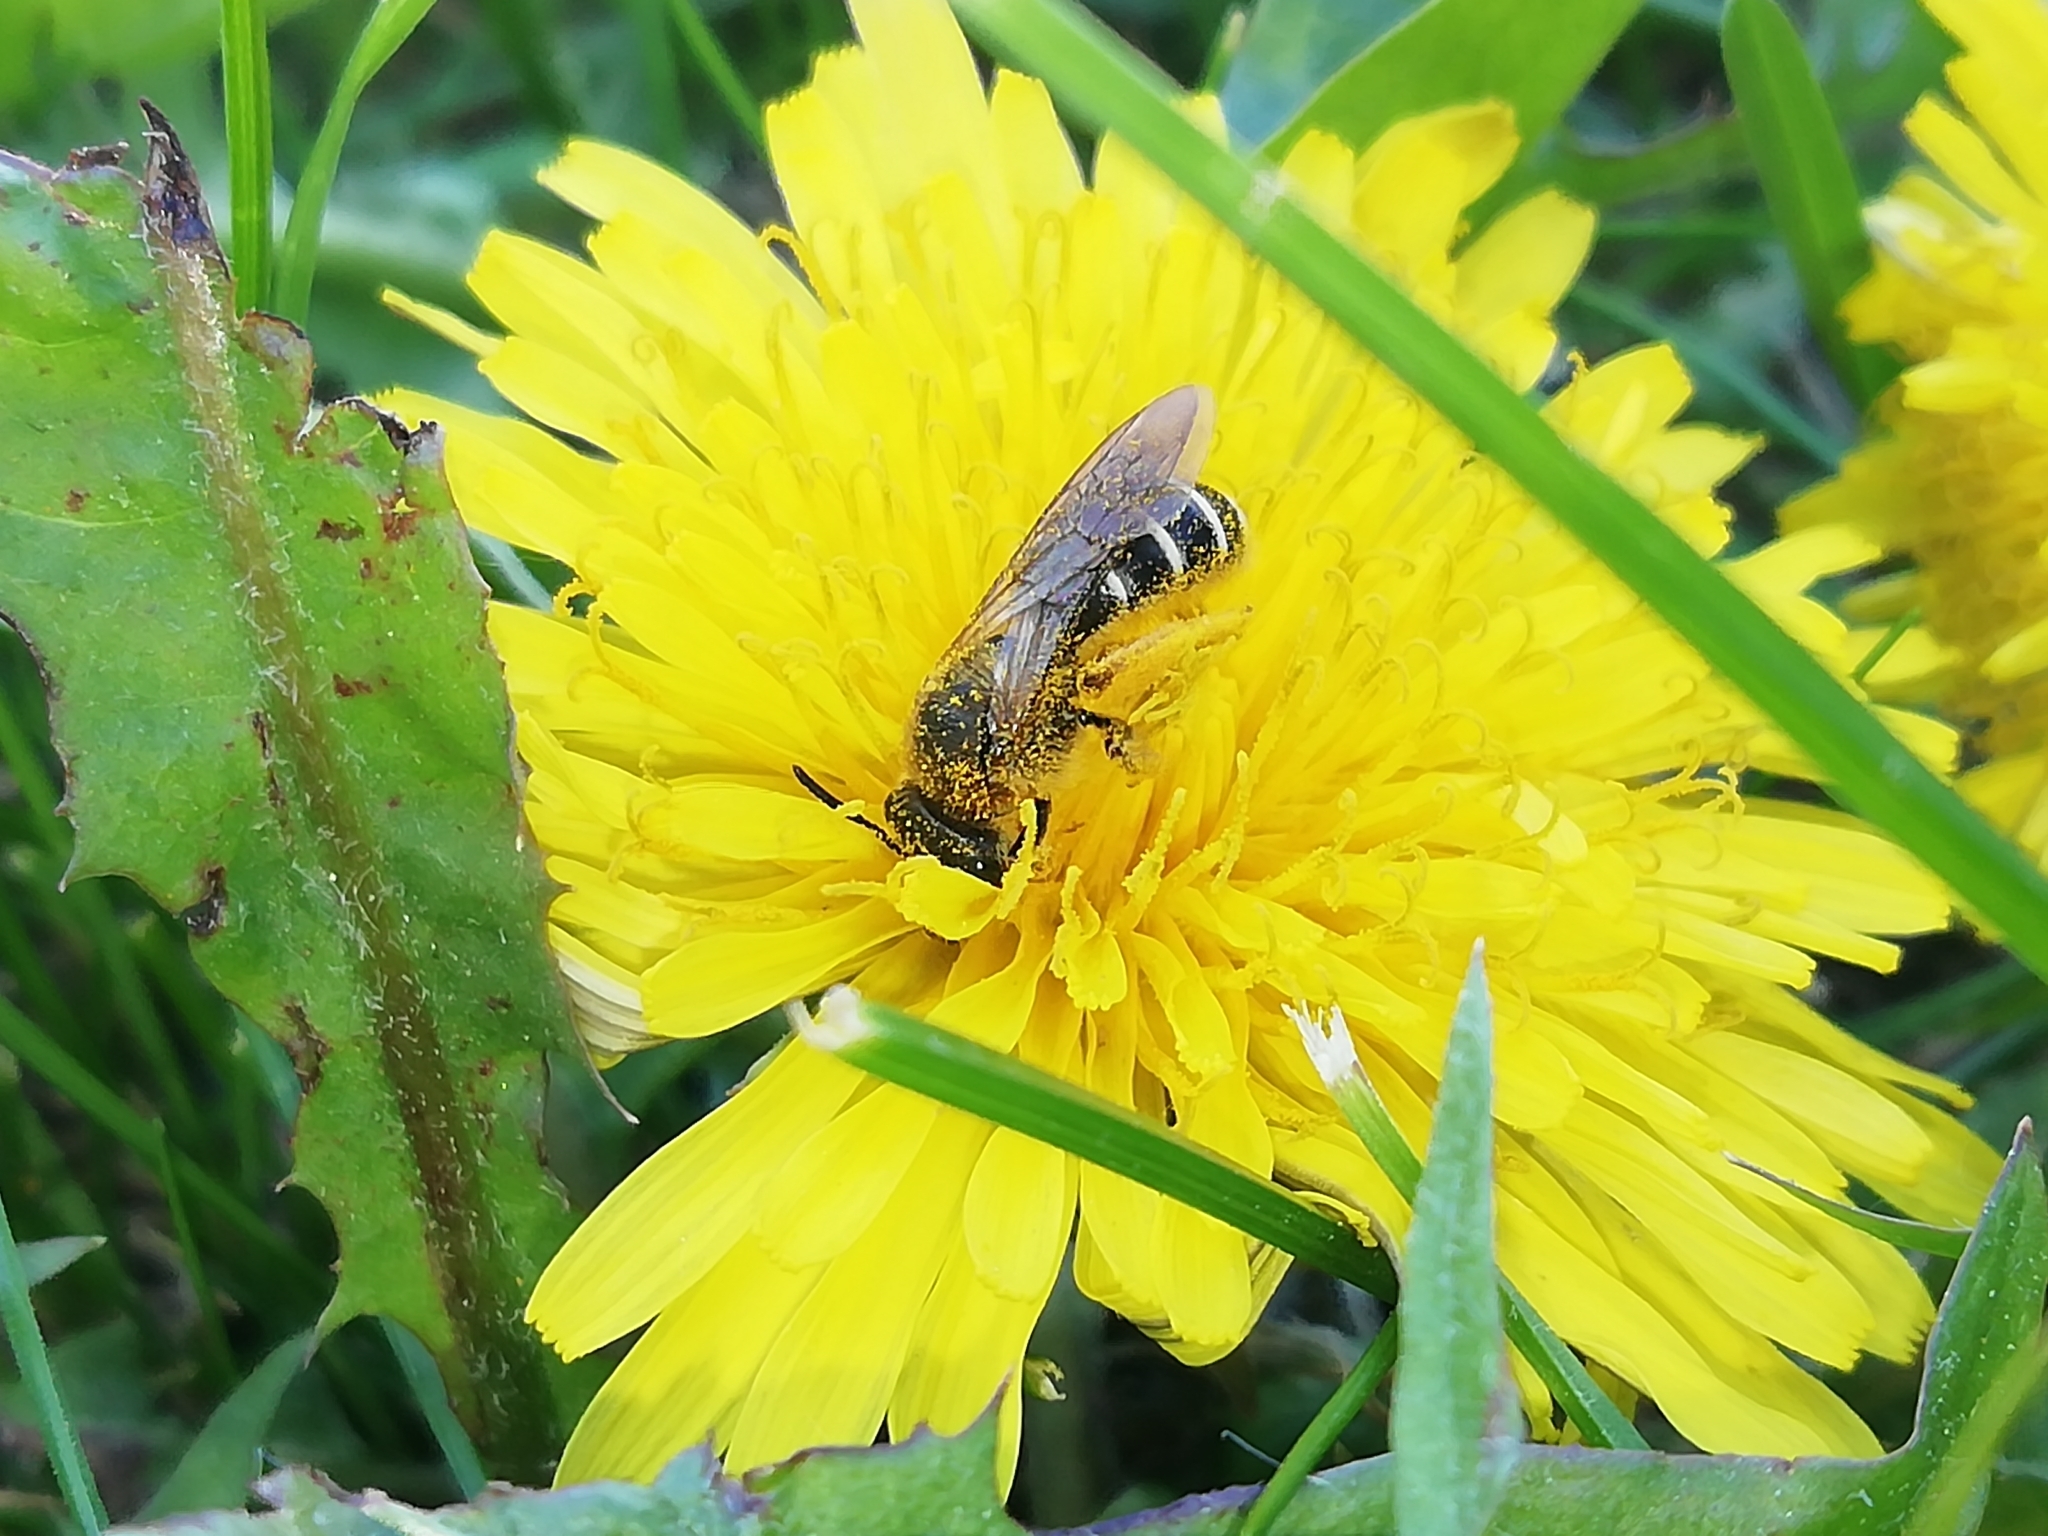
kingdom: Animalia
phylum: Arthropoda
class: Insecta
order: Hymenoptera
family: Halictidae
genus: Halictus
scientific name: Halictus rubicundus
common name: Orange-legged furrow bee
